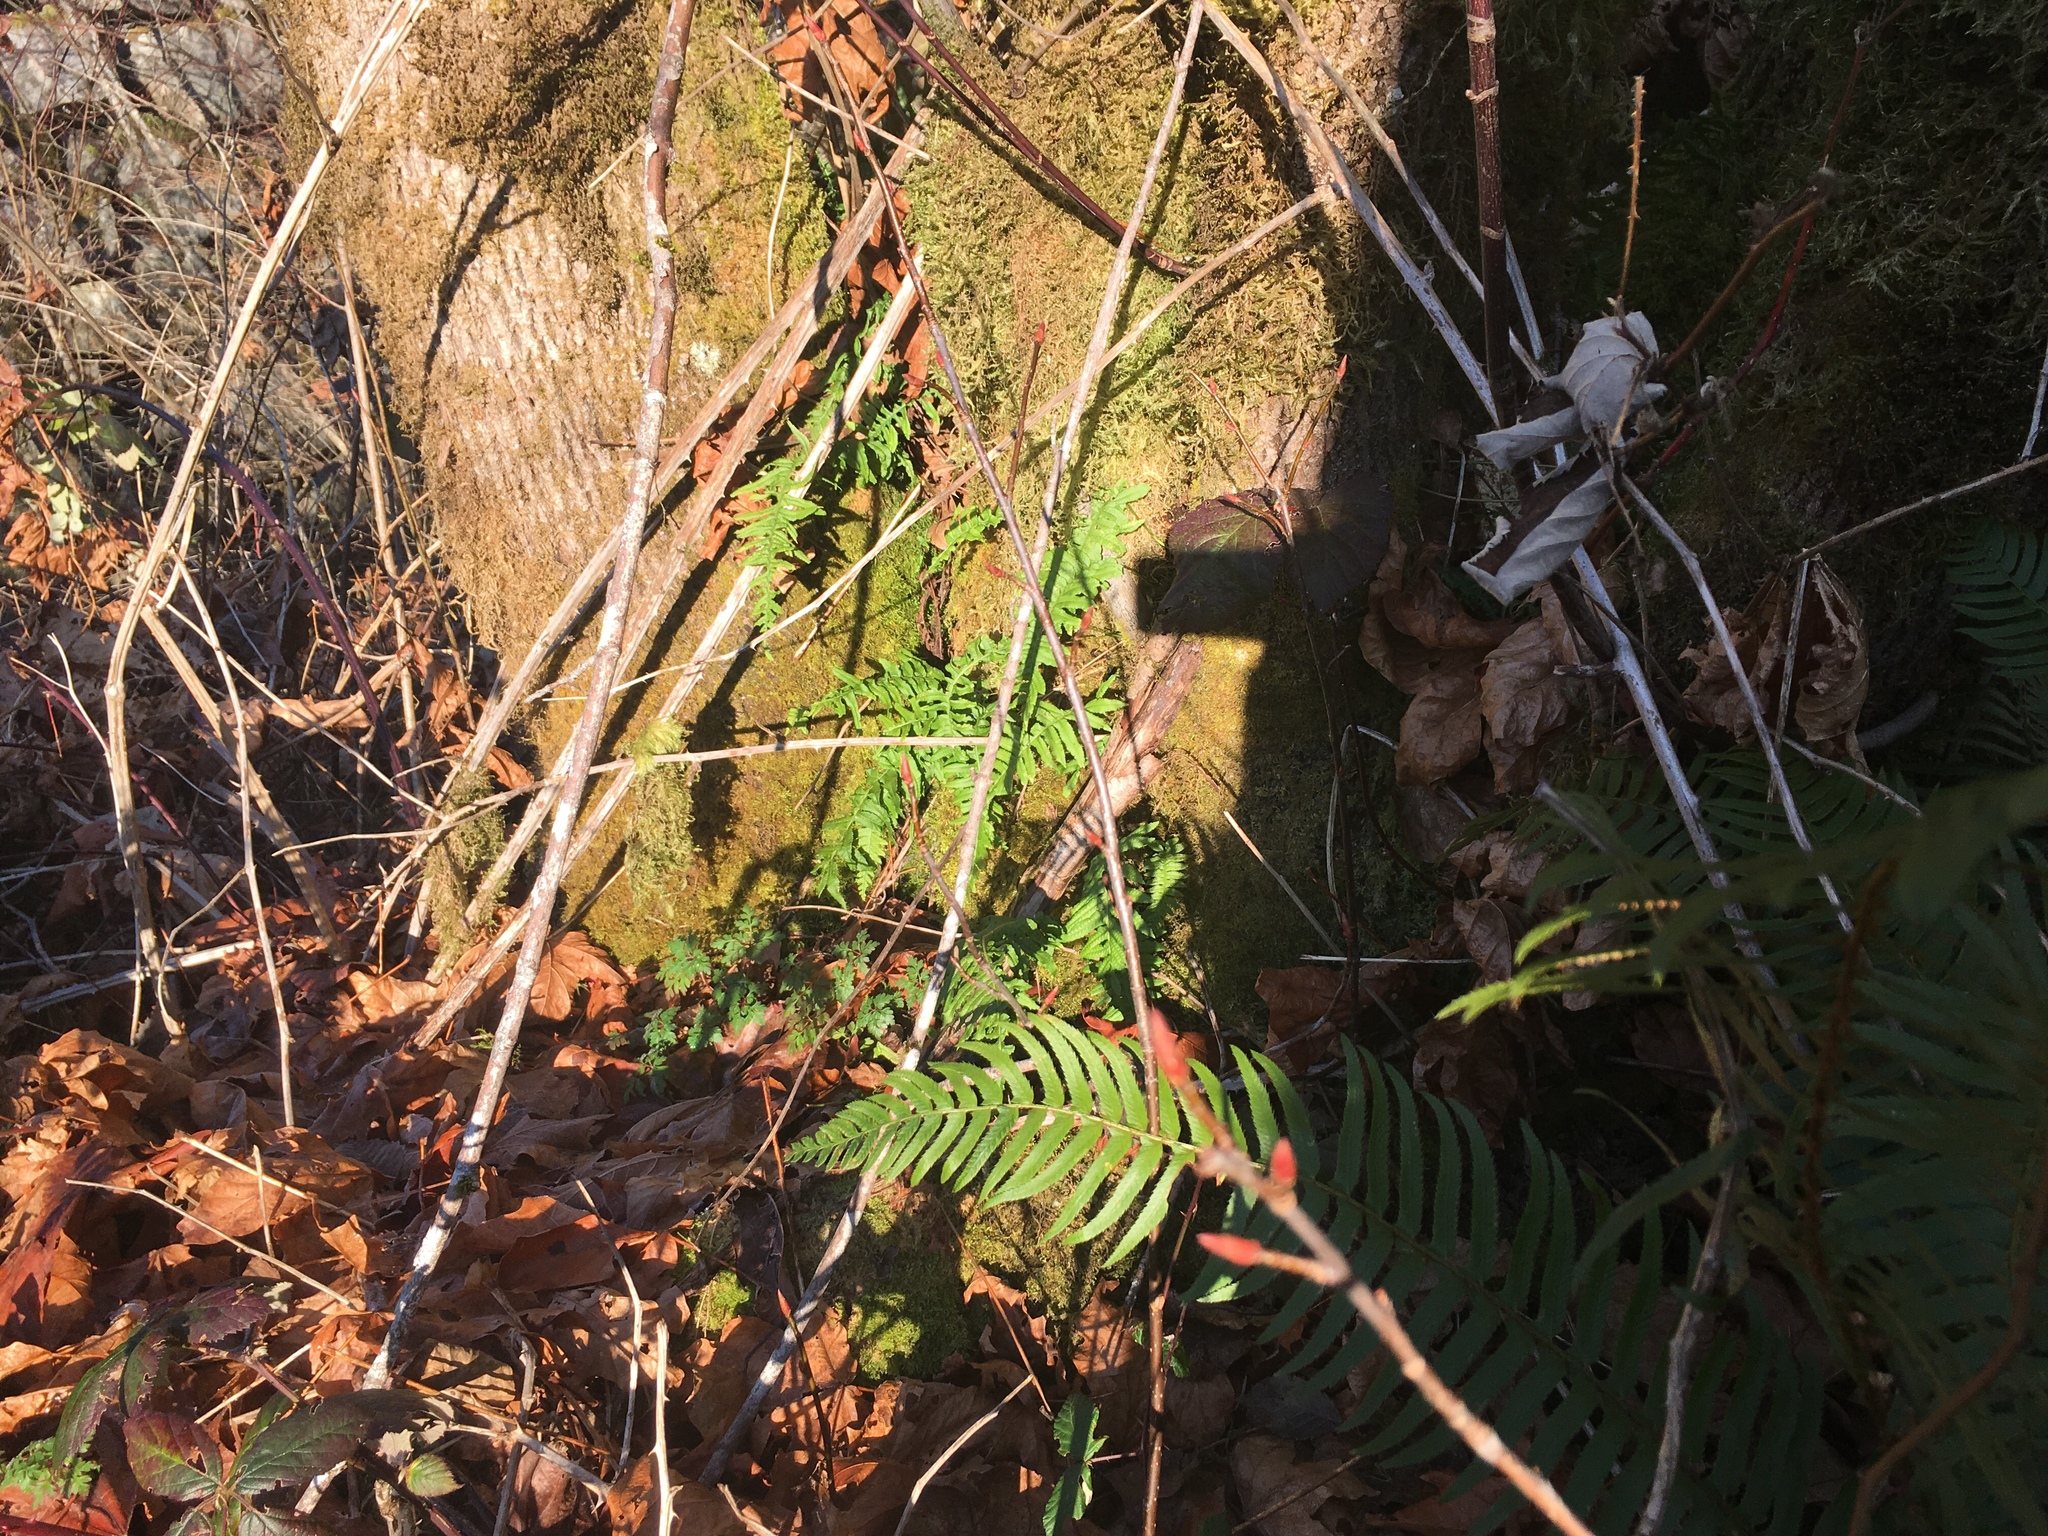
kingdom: Plantae
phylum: Tracheophyta
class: Polypodiopsida
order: Polypodiales
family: Polypodiaceae
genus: Polypodium
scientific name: Polypodium glycyrrhiza
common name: Licorice fern
